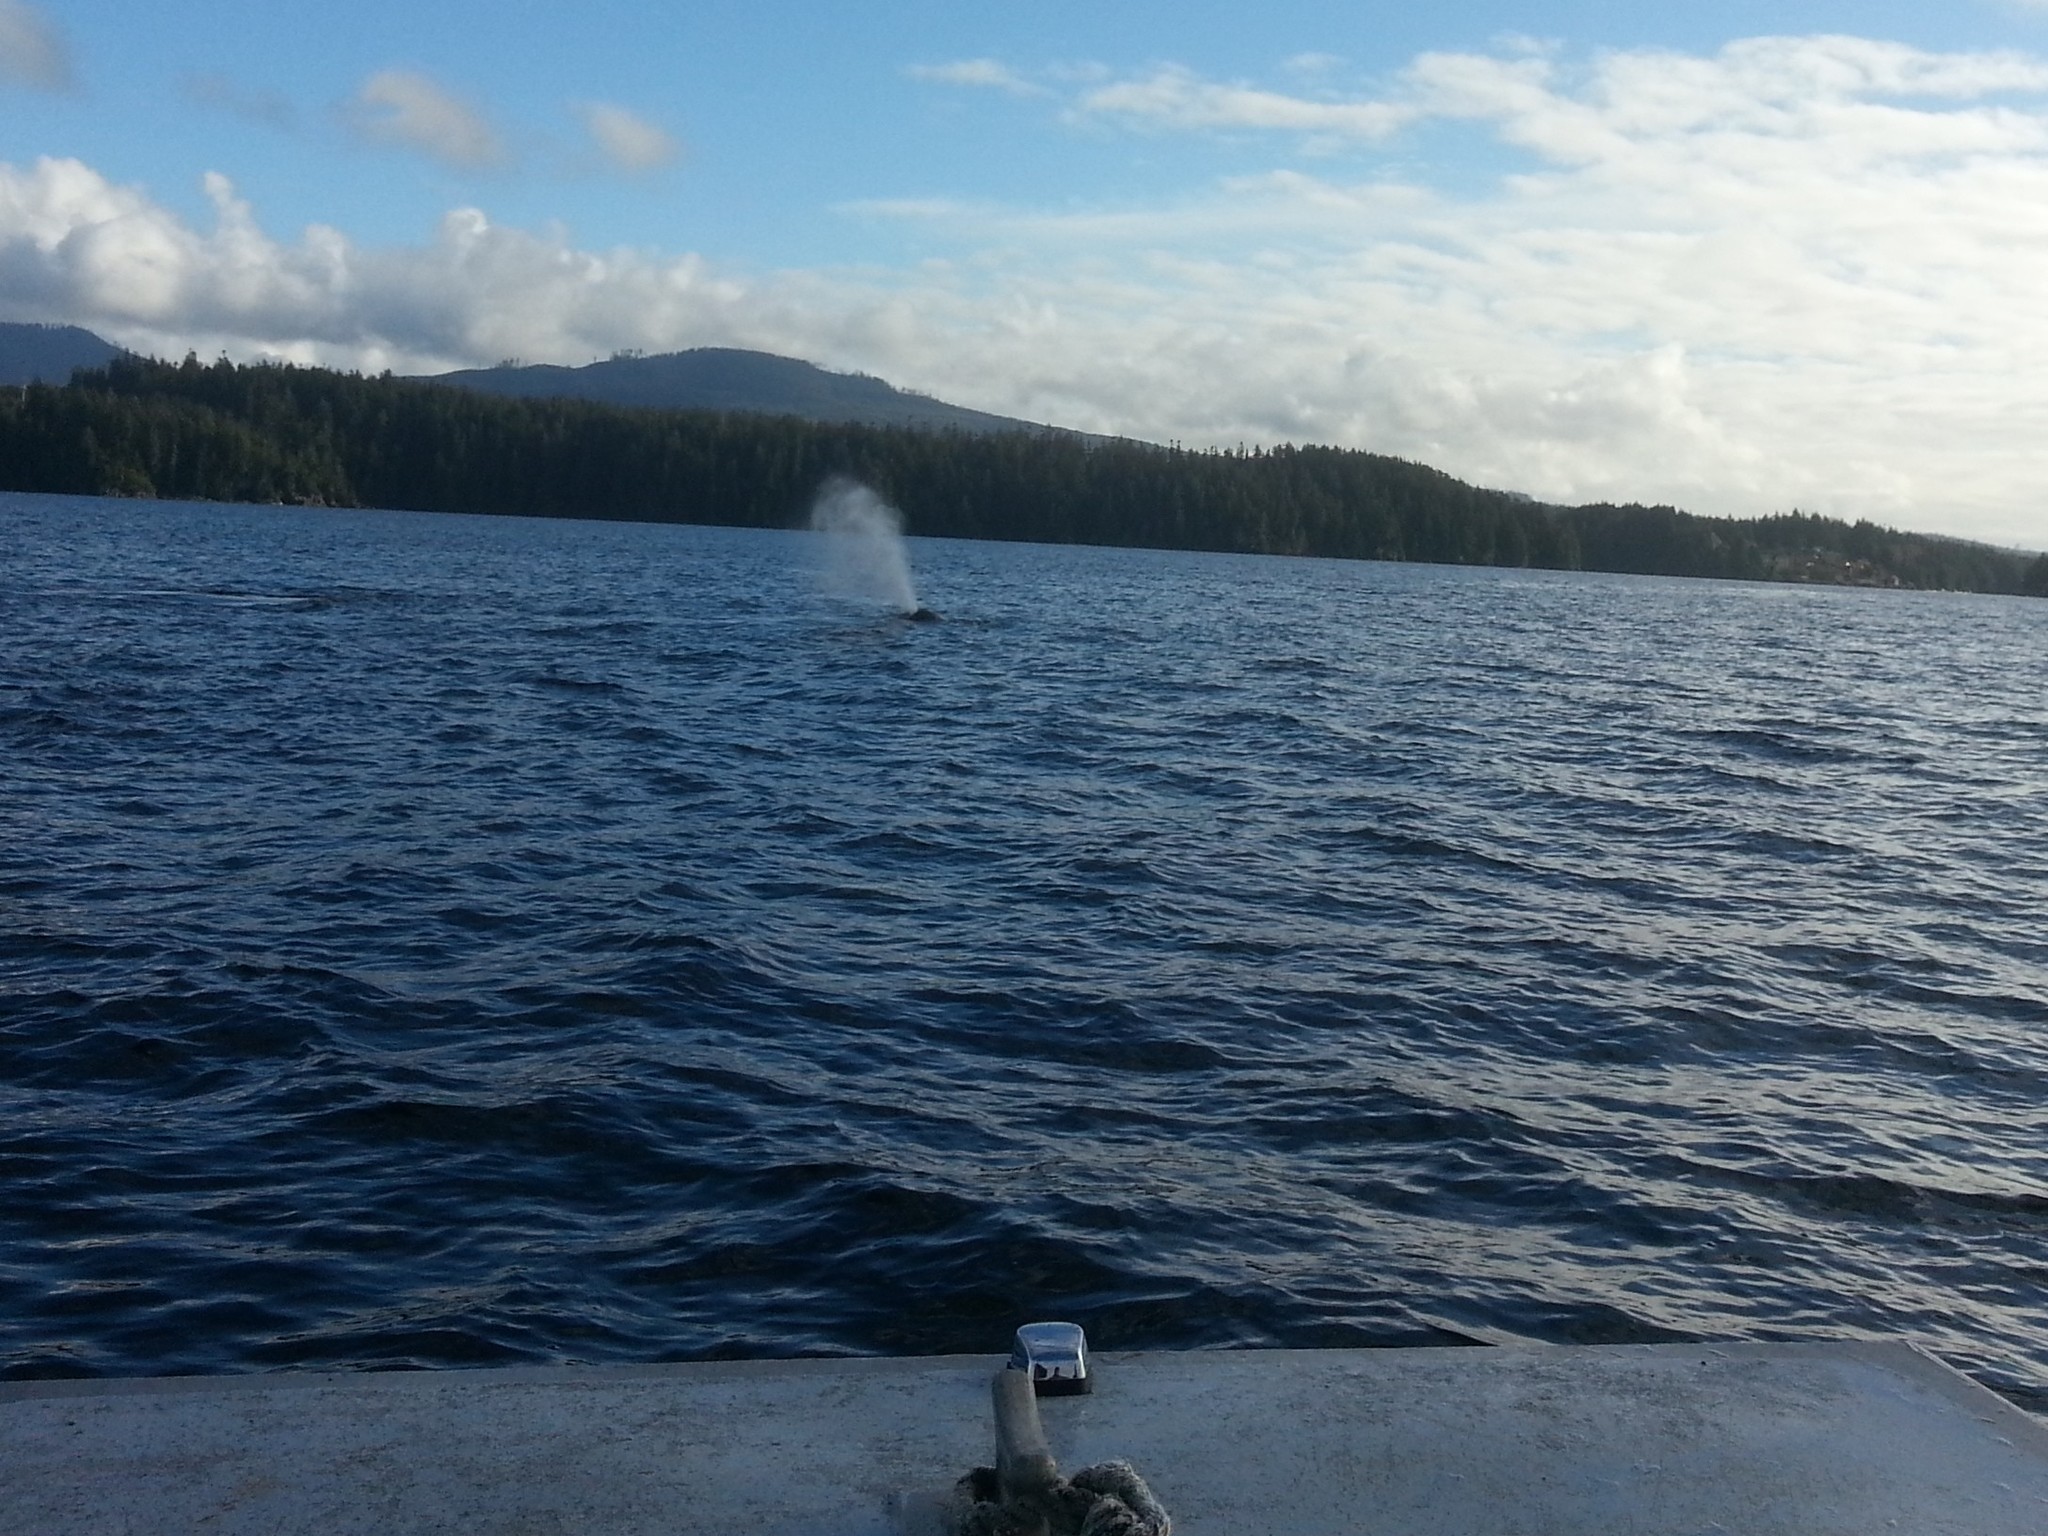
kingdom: Animalia
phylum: Chordata
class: Mammalia
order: Cetacea
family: Balaenopteridae
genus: Megaptera
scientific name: Megaptera novaeangliae
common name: Humpback whale
